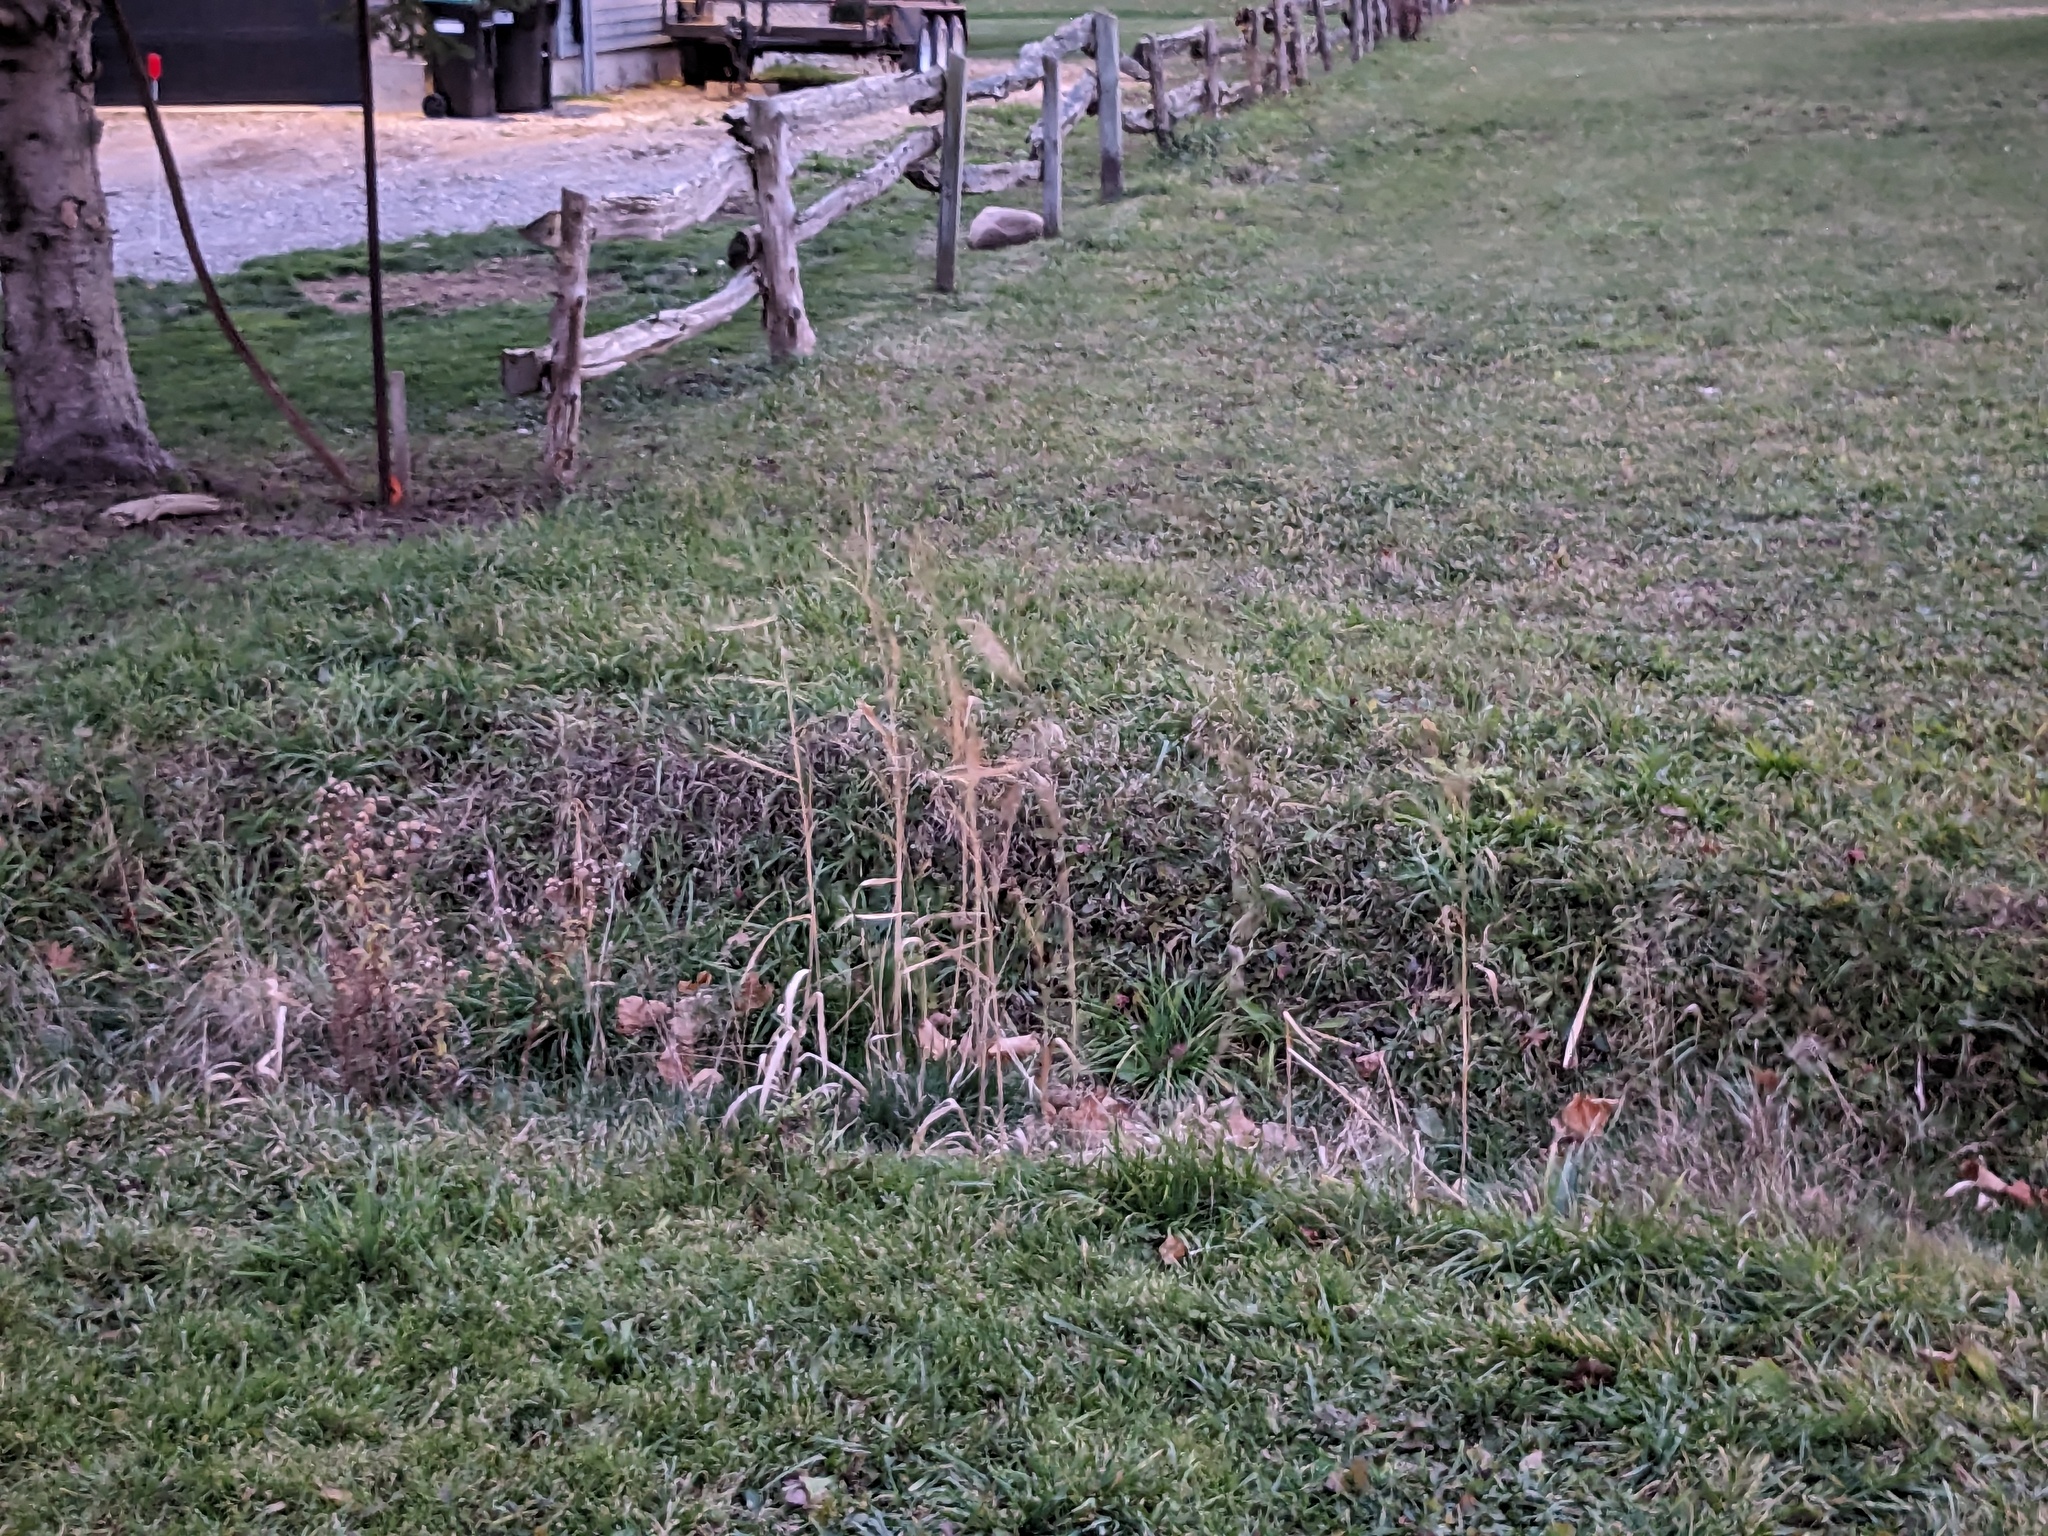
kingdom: Plantae
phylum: Tracheophyta
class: Liliopsida
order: Poales
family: Poaceae
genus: Phragmites
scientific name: Phragmites australis
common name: Common reed
